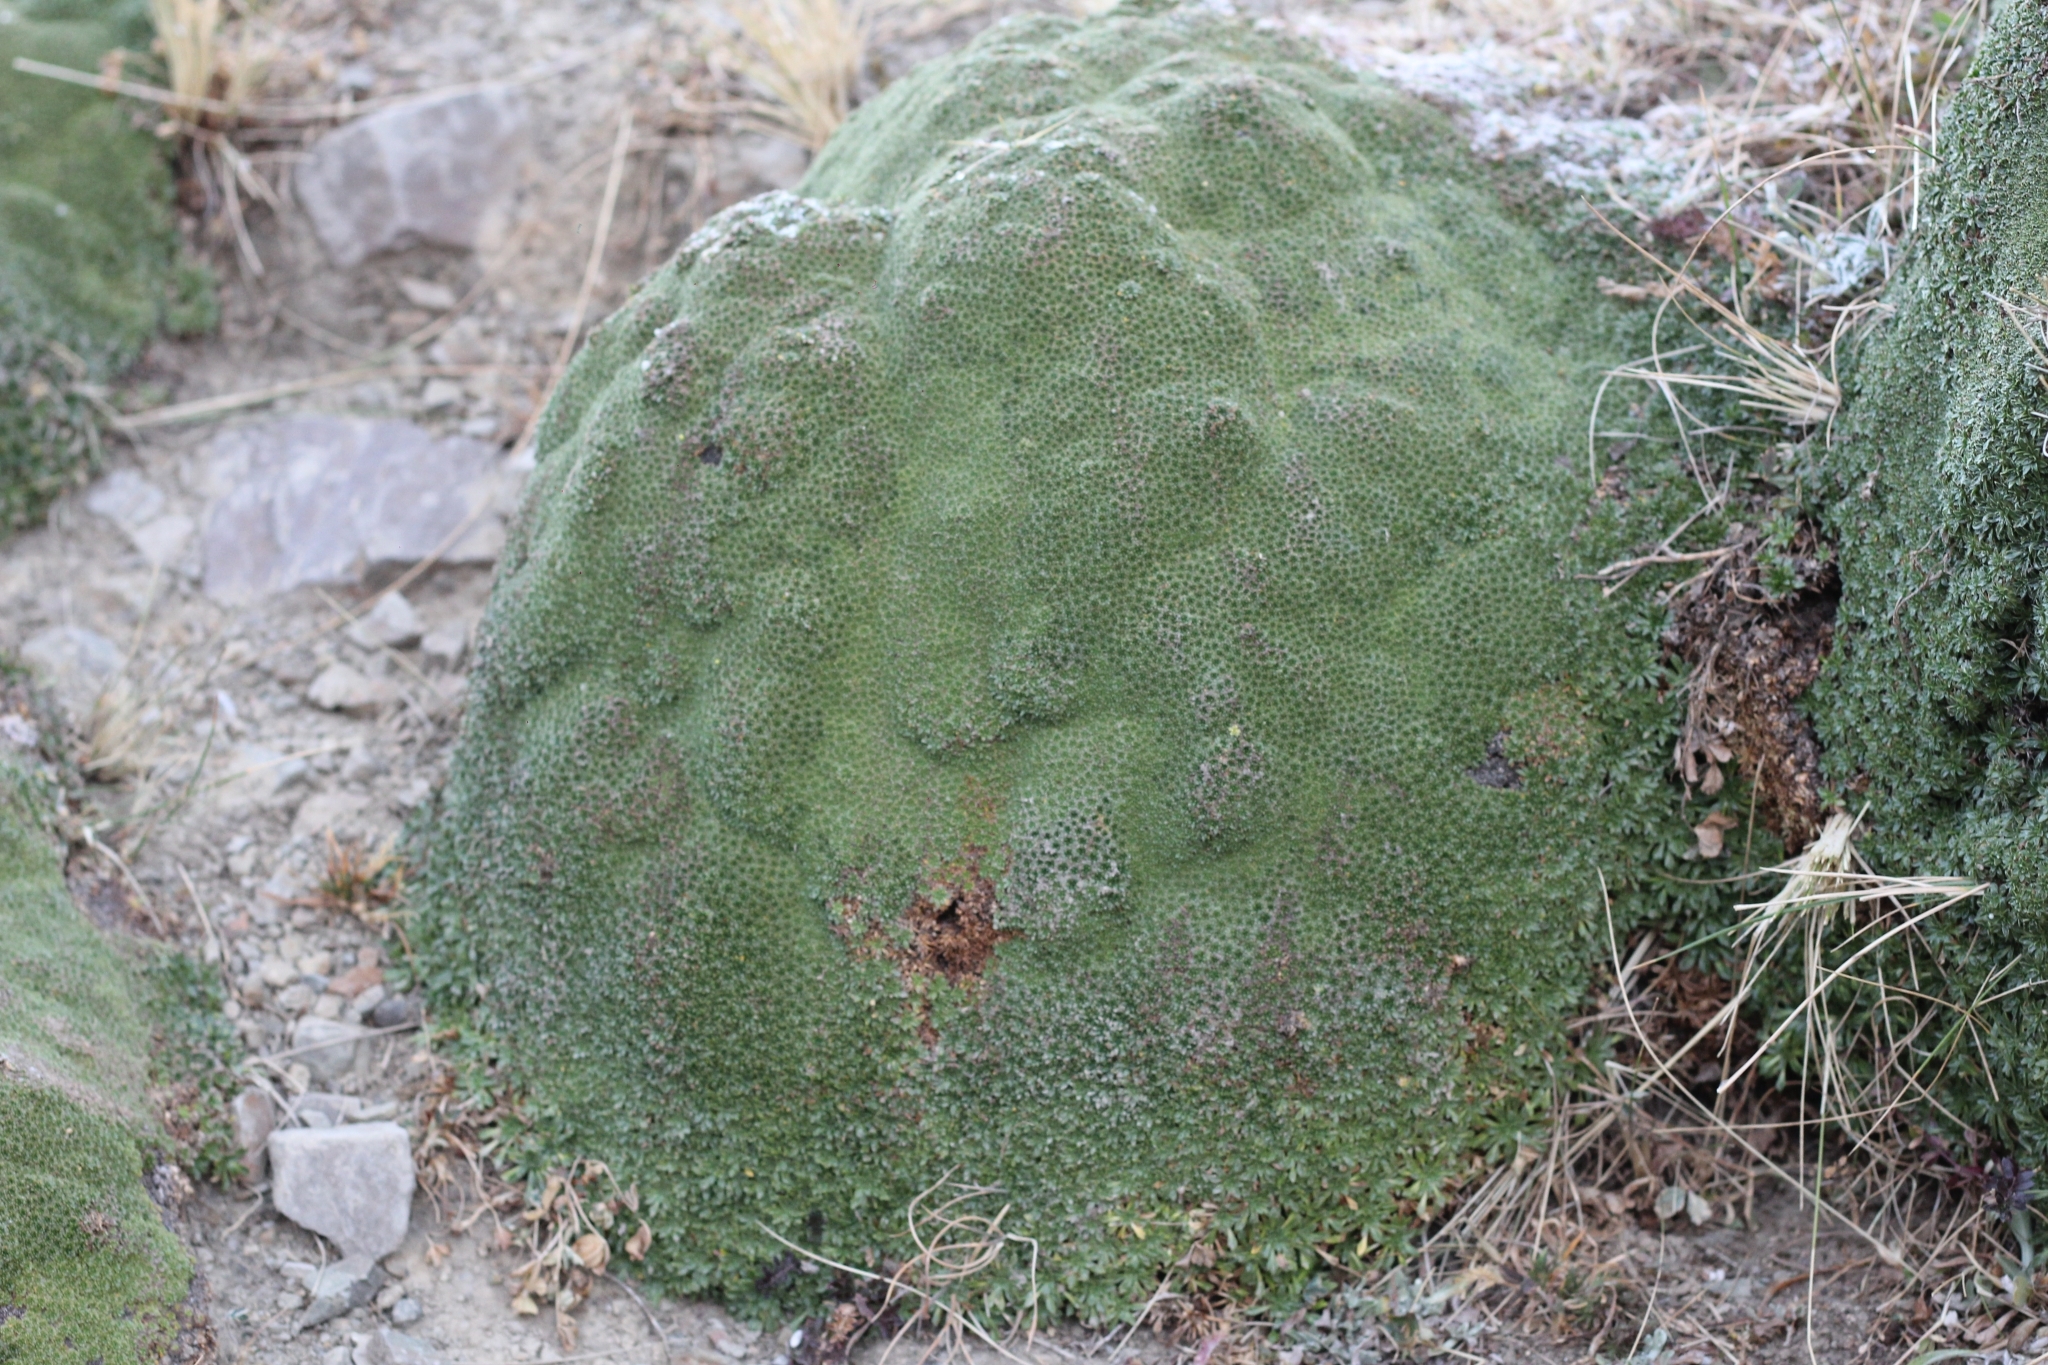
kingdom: Plantae
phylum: Tracheophyta
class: Magnoliopsida
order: Apiales
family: Apiaceae
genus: Azorella
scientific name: Azorella compacta
